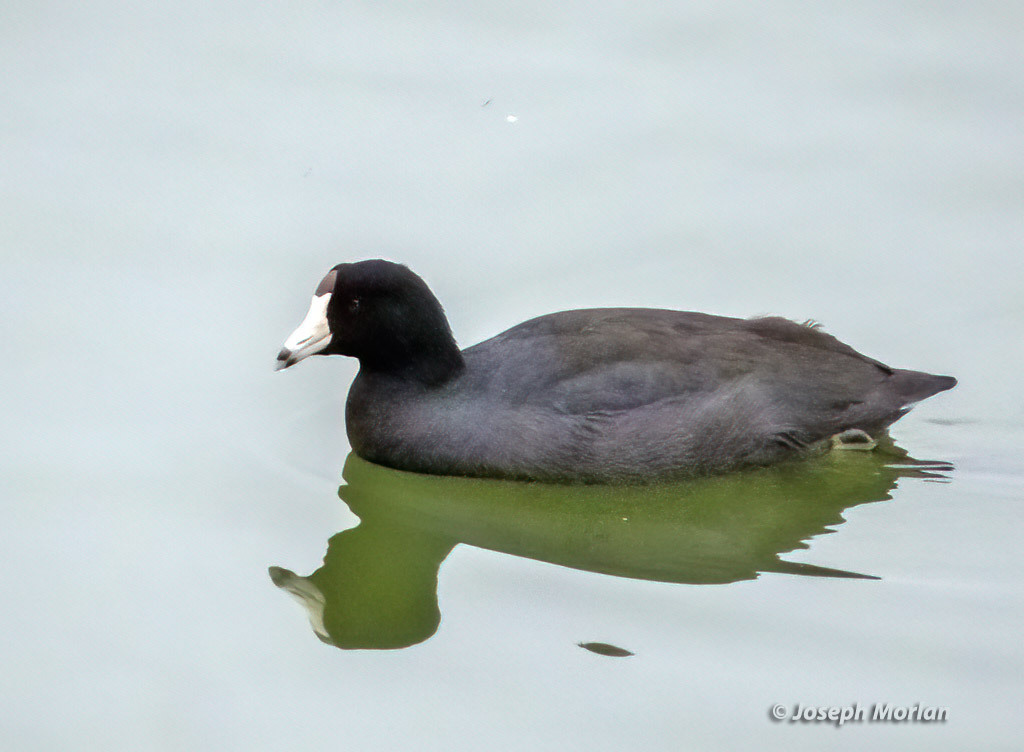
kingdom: Animalia
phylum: Chordata
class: Aves
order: Gruiformes
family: Rallidae
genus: Fulica
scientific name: Fulica americana
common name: American coot
